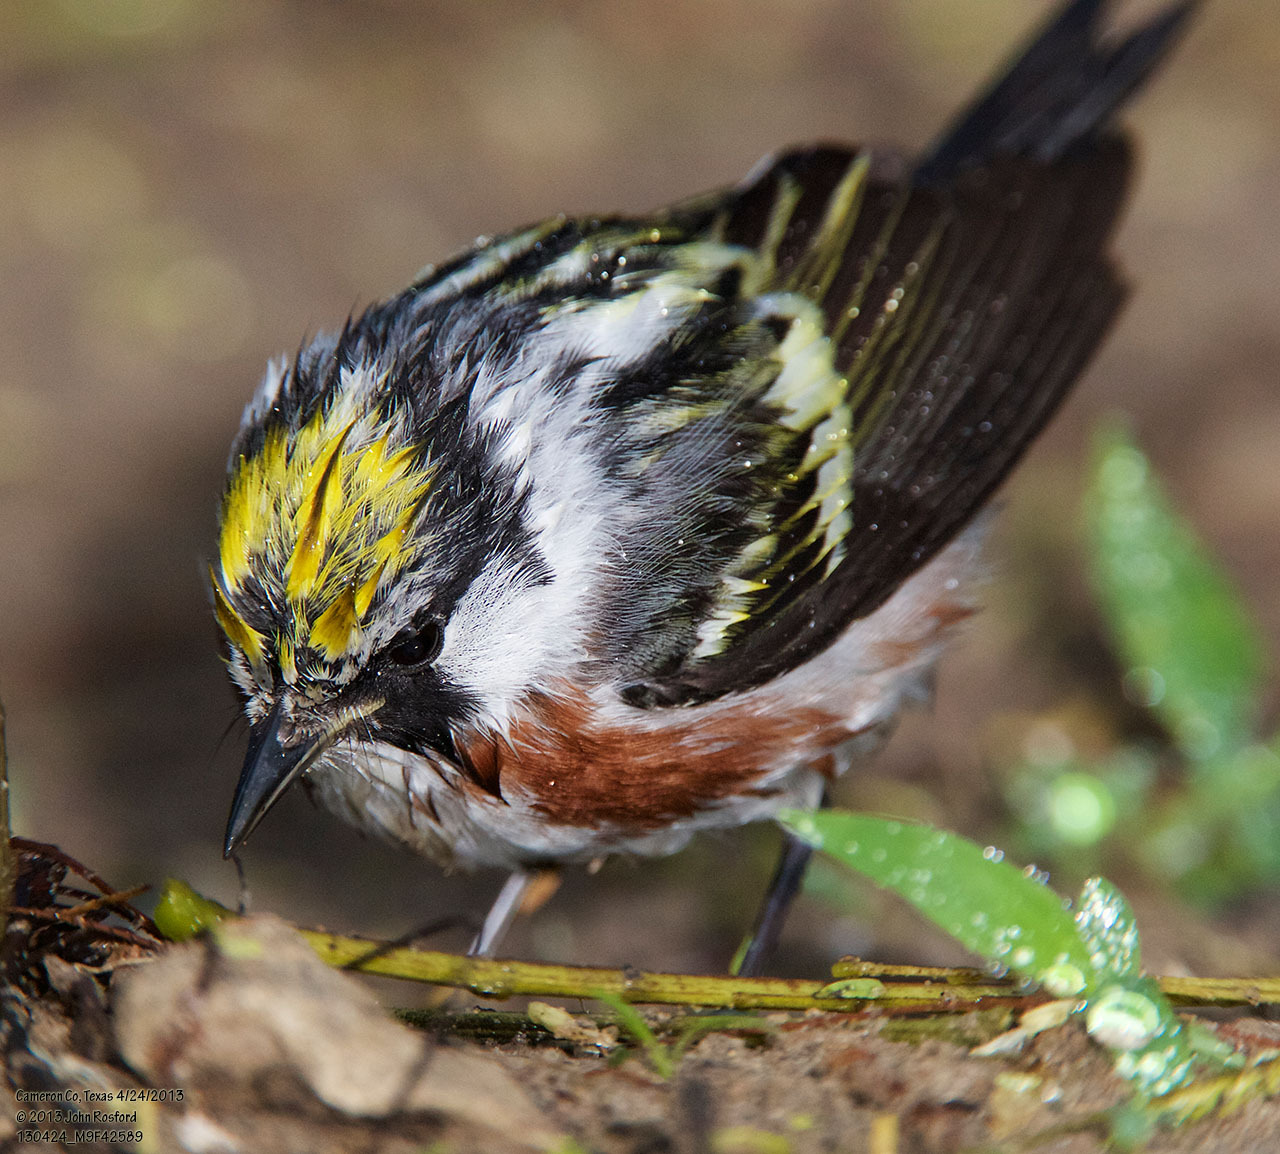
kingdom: Animalia
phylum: Chordata
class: Aves
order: Passeriformes
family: Parulidae
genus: Setophaga
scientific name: Setophaga pensylvanica
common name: Chestnut-sided warbler
